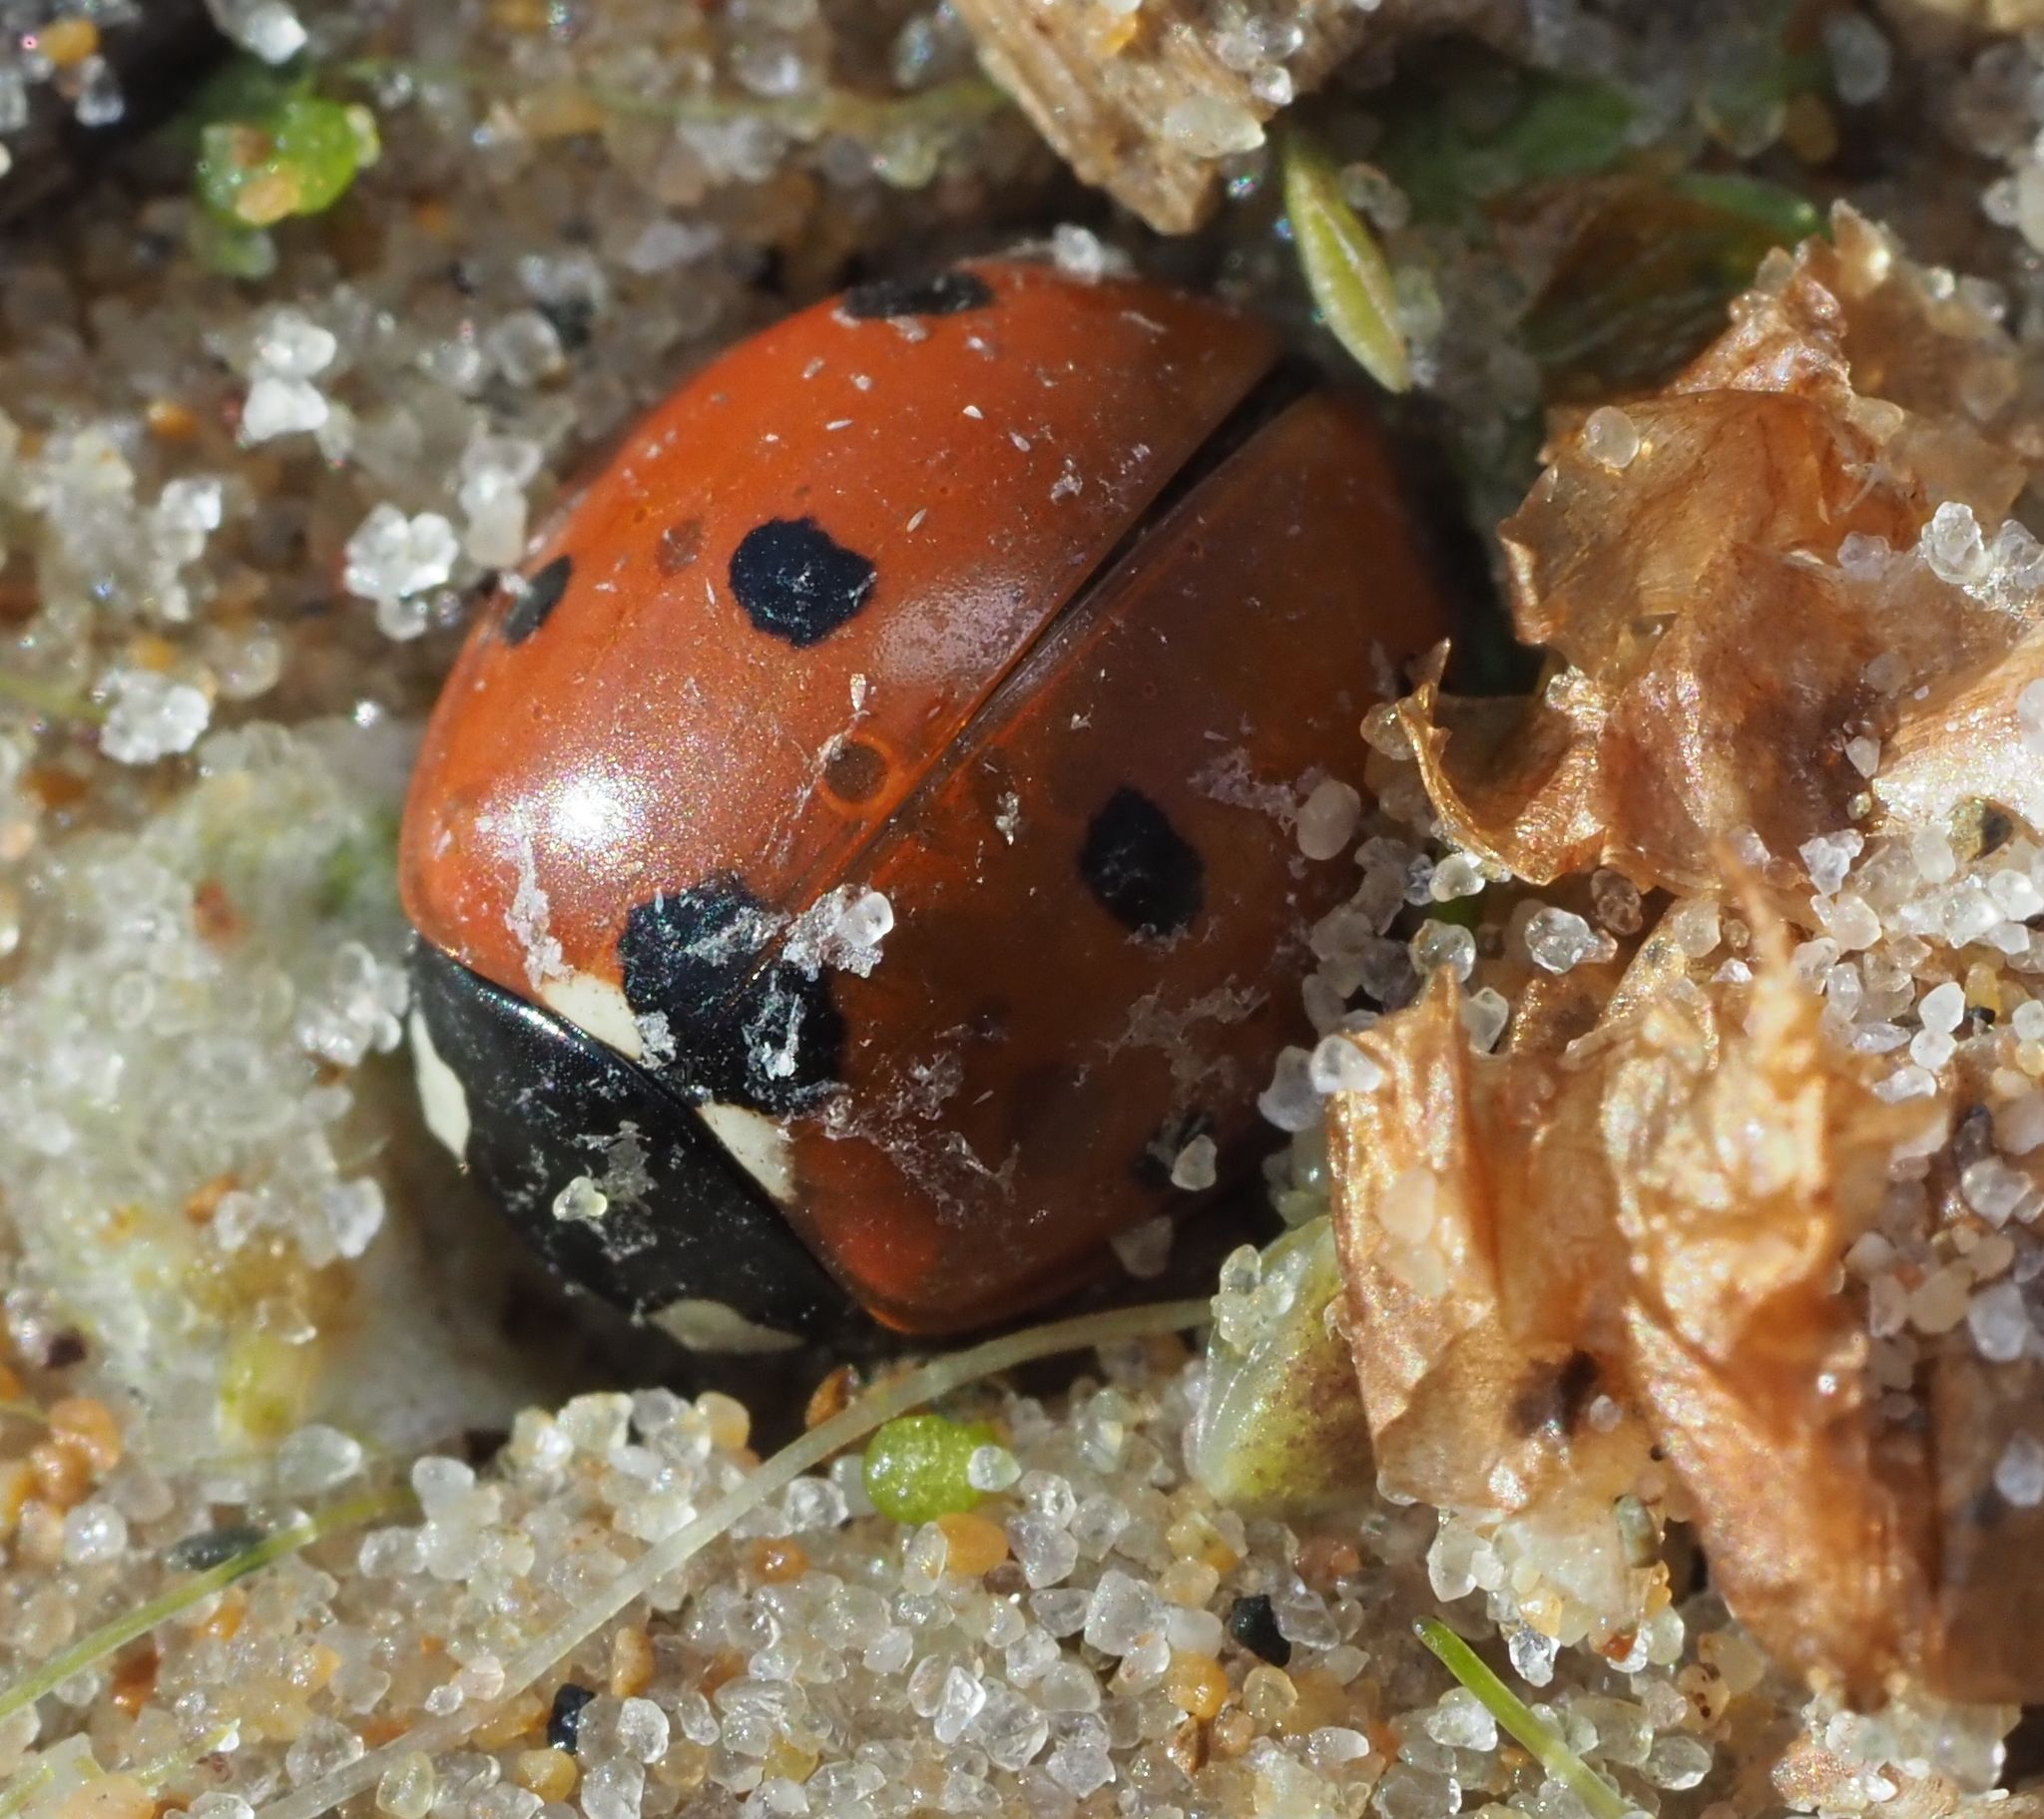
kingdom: Animalia
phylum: Arthropoda
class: Insecta
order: Coleoptera
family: Coccinellidae
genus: Coccinella
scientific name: Coccinella septempunctata
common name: Sevenspotted lady beetle
